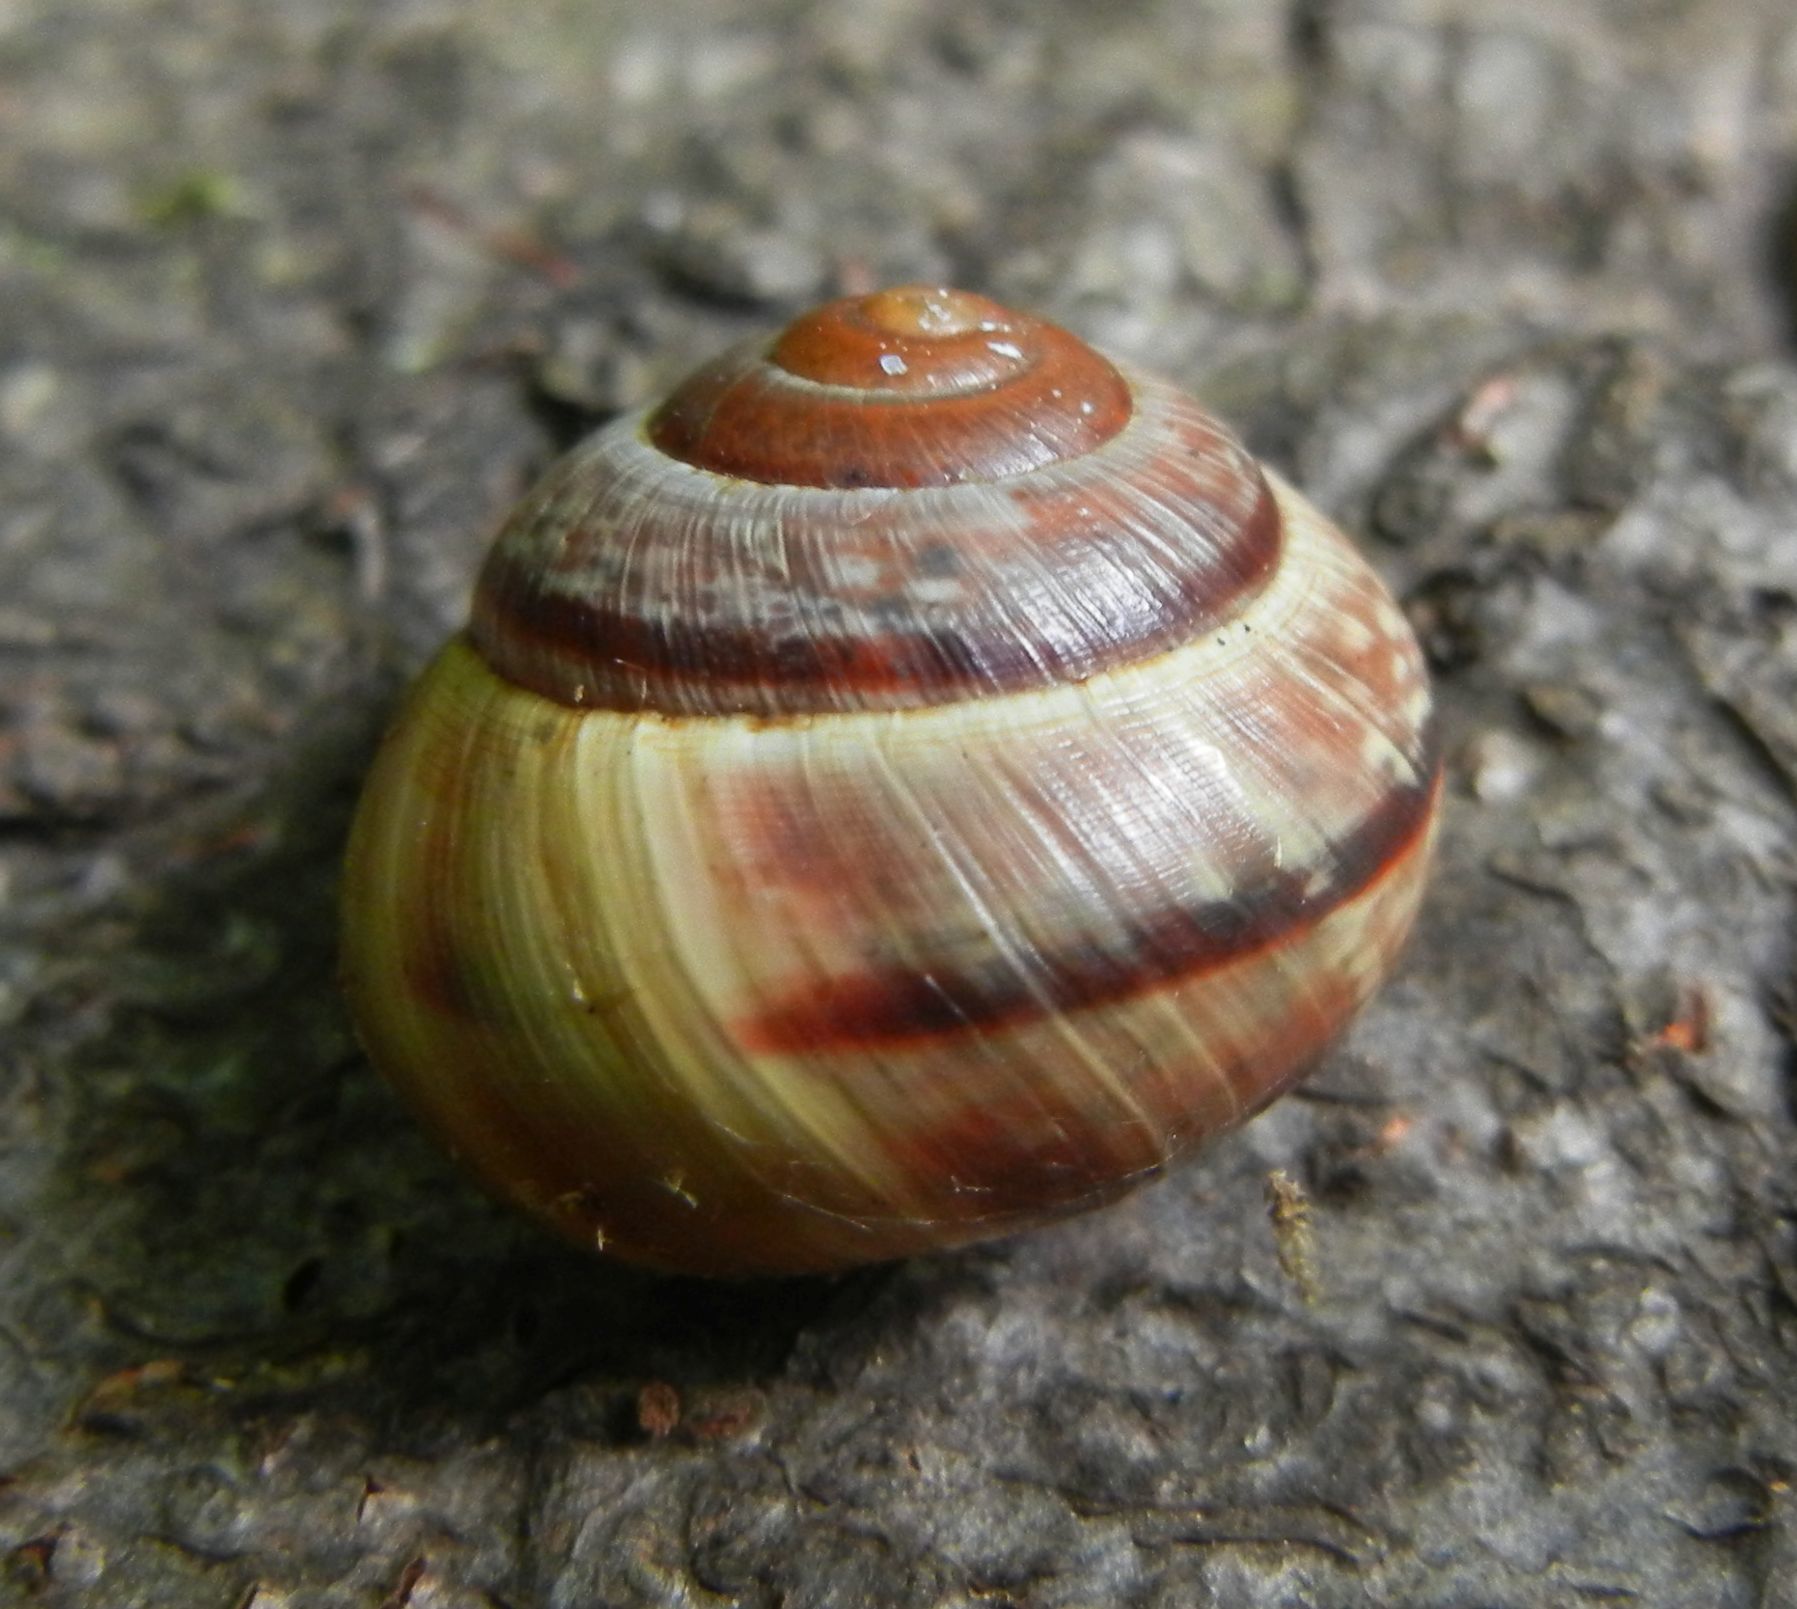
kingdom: Animalia
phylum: Mollusca
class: Gastropoda
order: Stylommatophora
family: Helicidae
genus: Arianta
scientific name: Arianta arbustorum
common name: Copse snail
